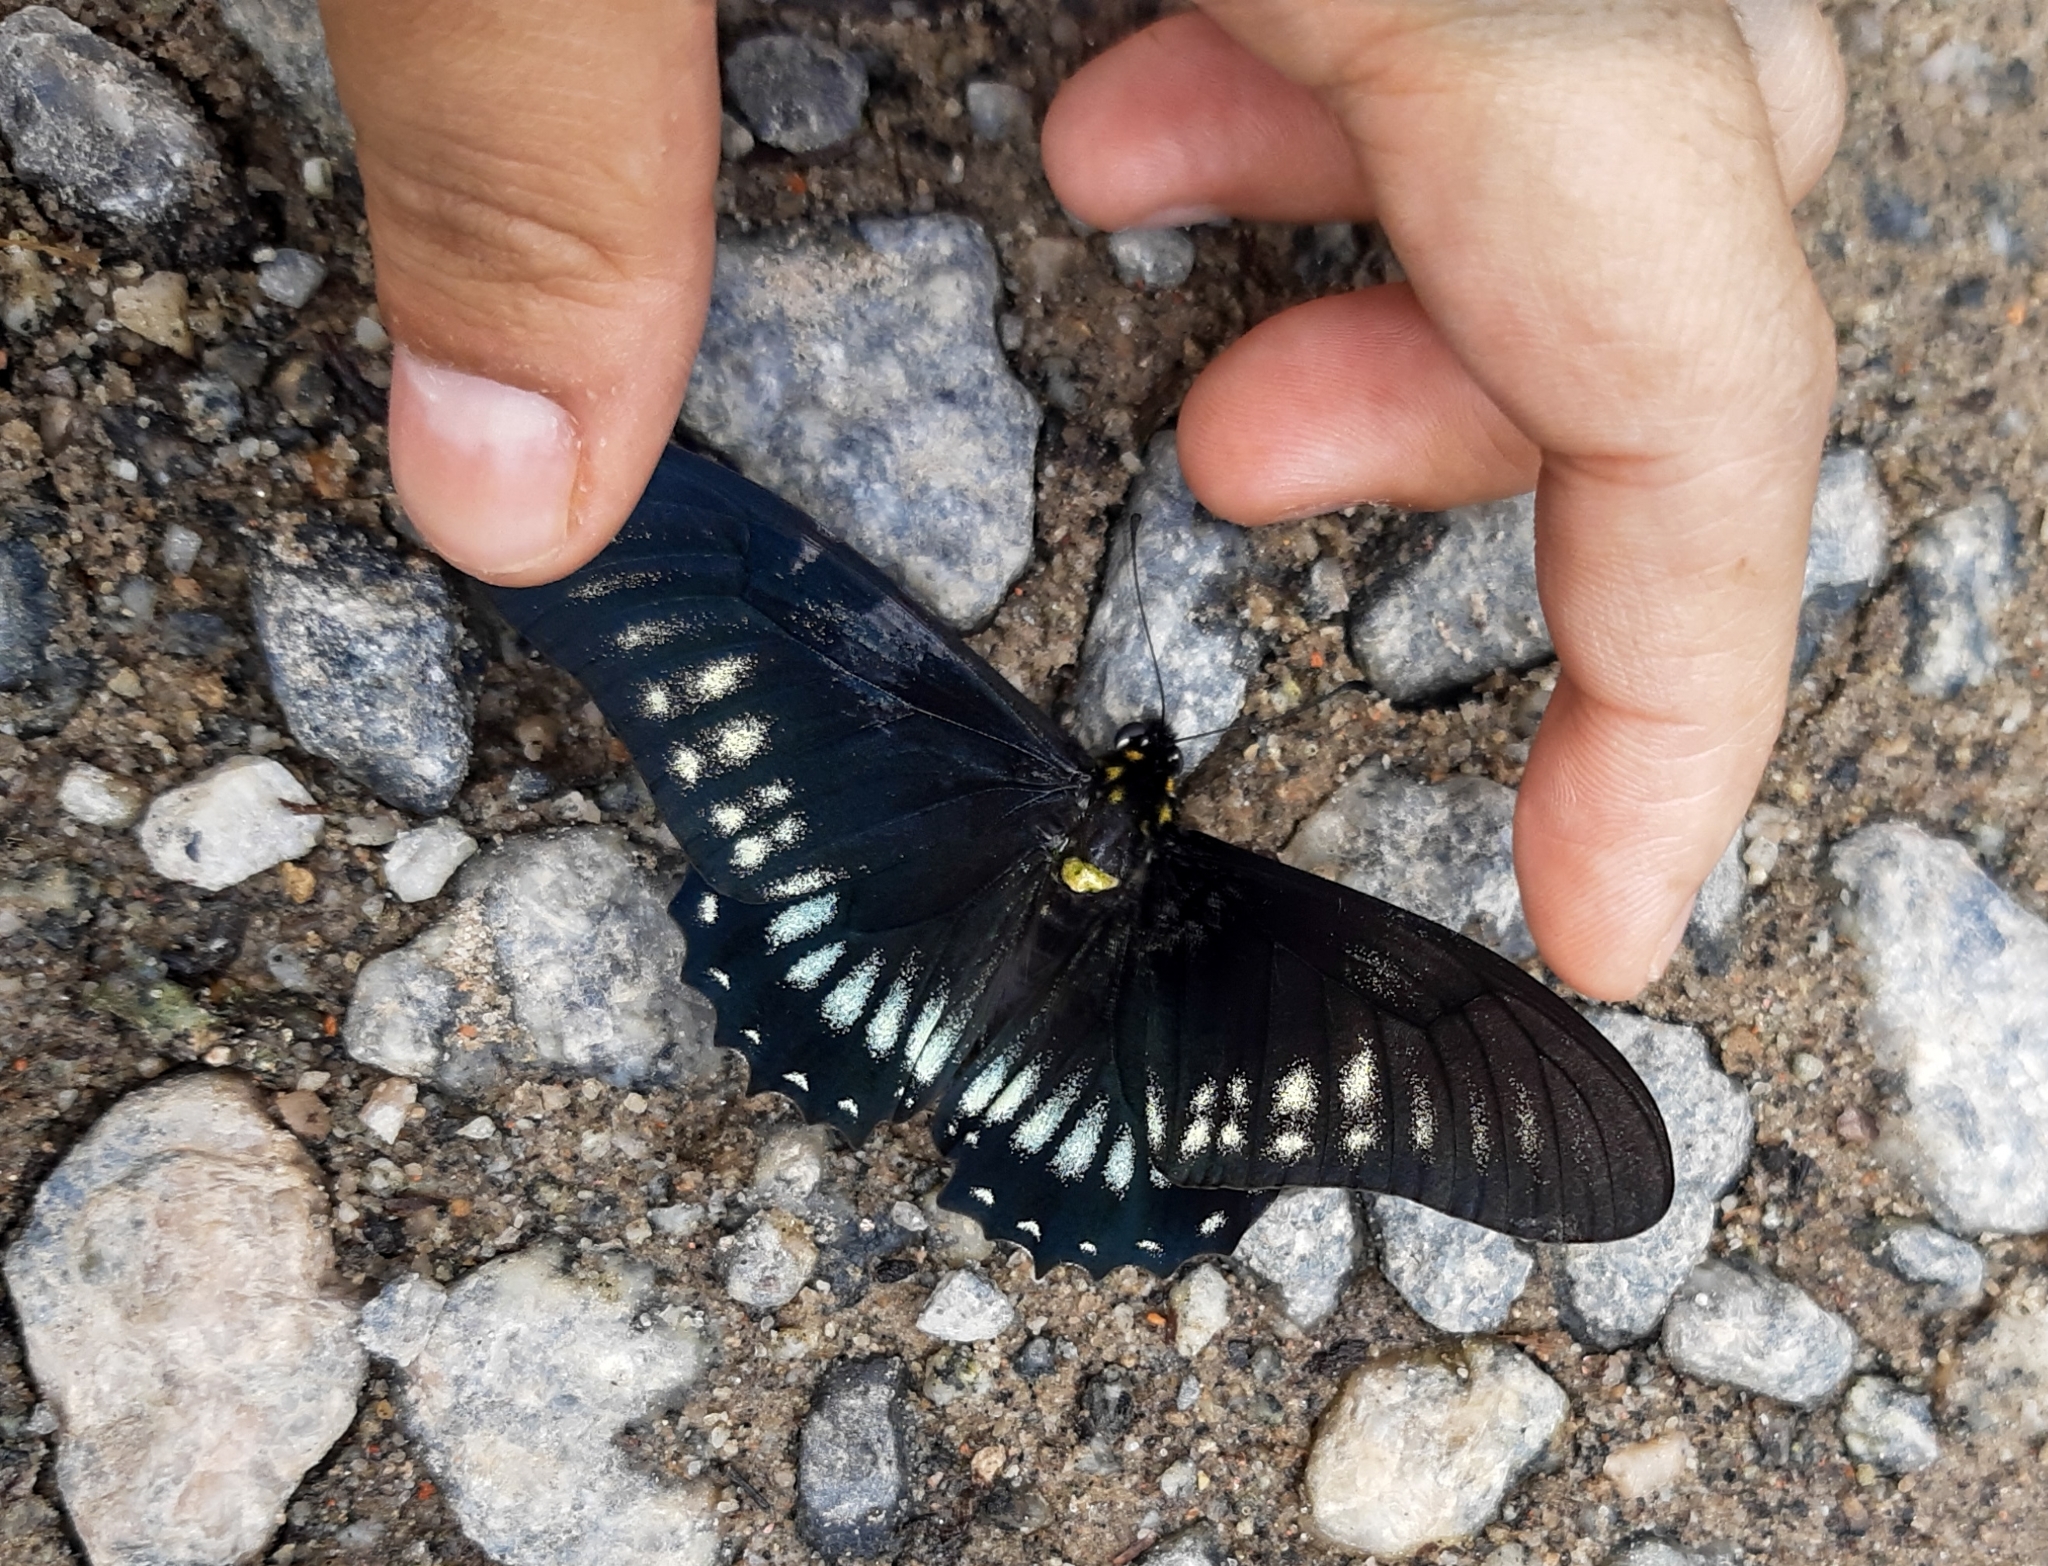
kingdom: Animalia
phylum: Arthropoda
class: Insecta
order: Lepidoptera
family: Papilionidae
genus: Mimoides
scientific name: Mimoides protodamas
